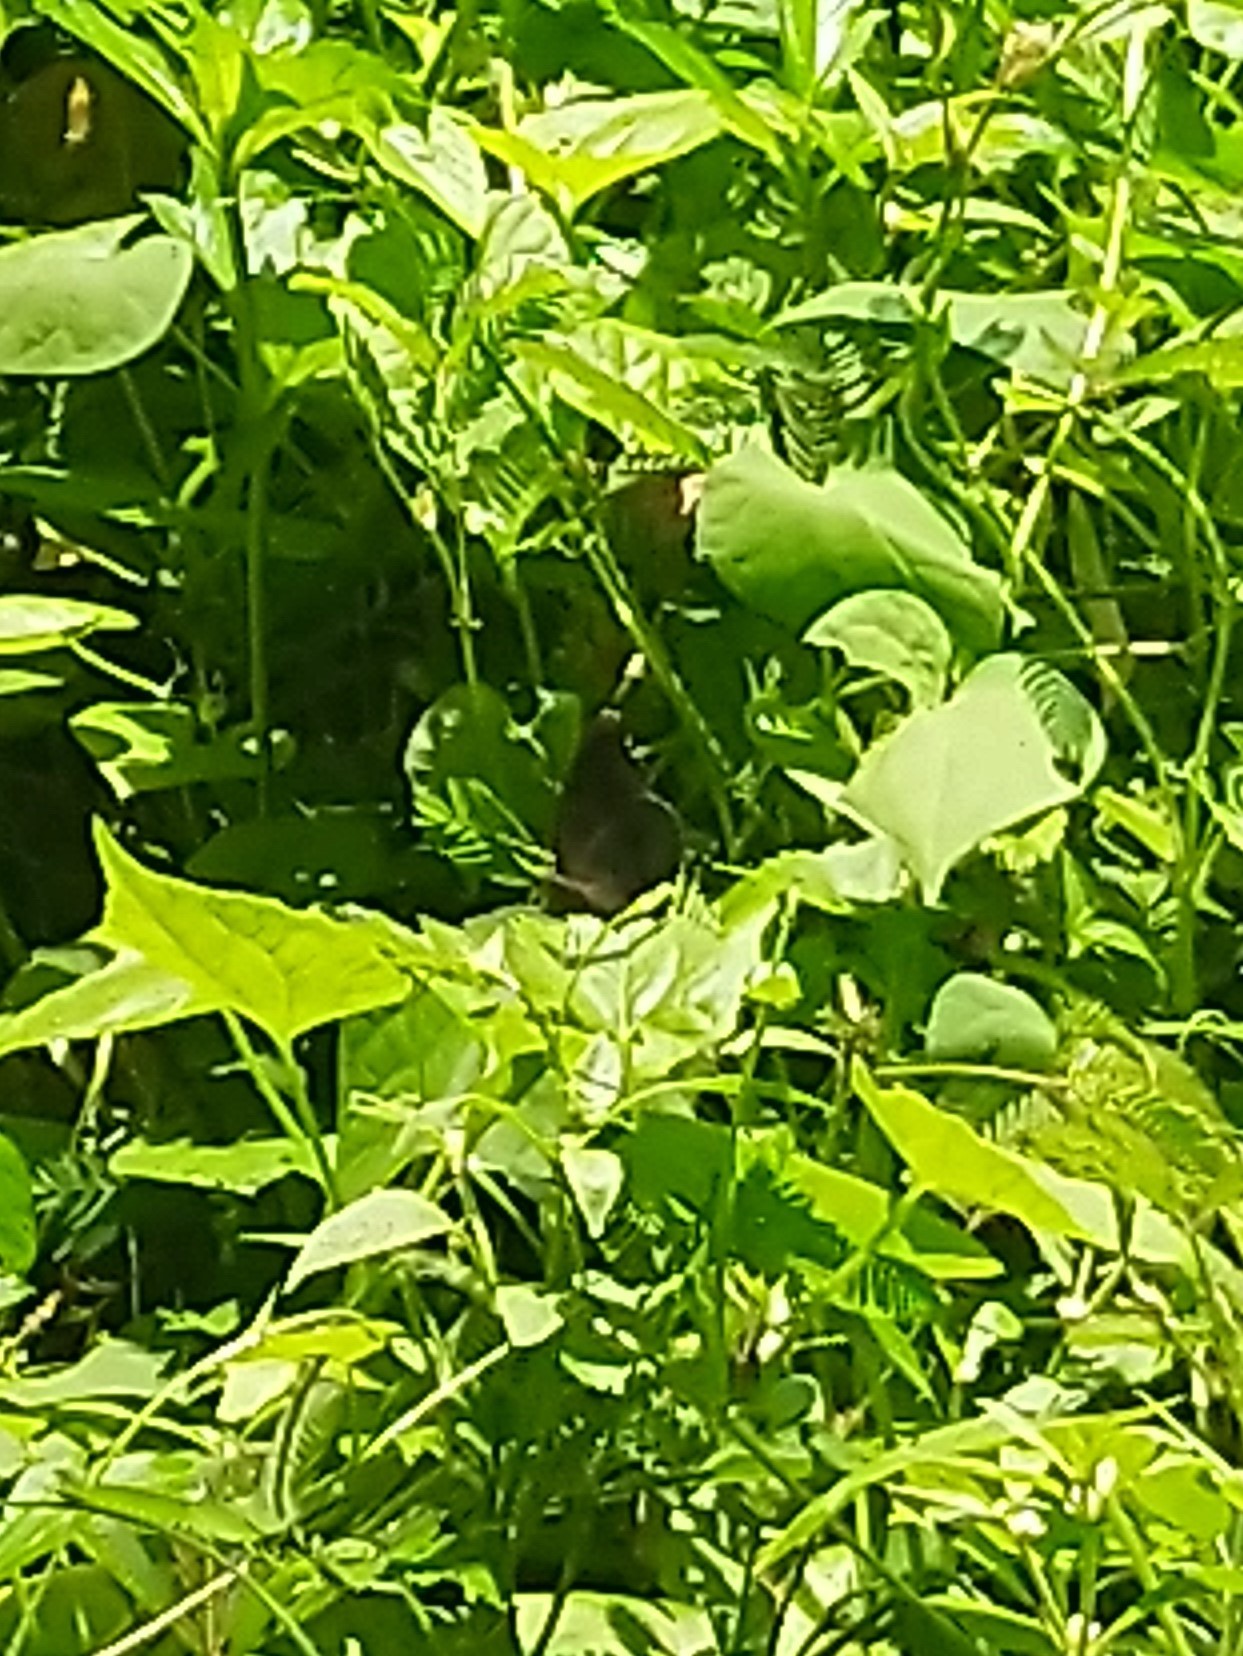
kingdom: Animalia
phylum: Arthropoda
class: Insecta
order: Lepidoptera
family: Nymphalidae
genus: Junonia
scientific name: Junonia iphita
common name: Chocolate pansy
